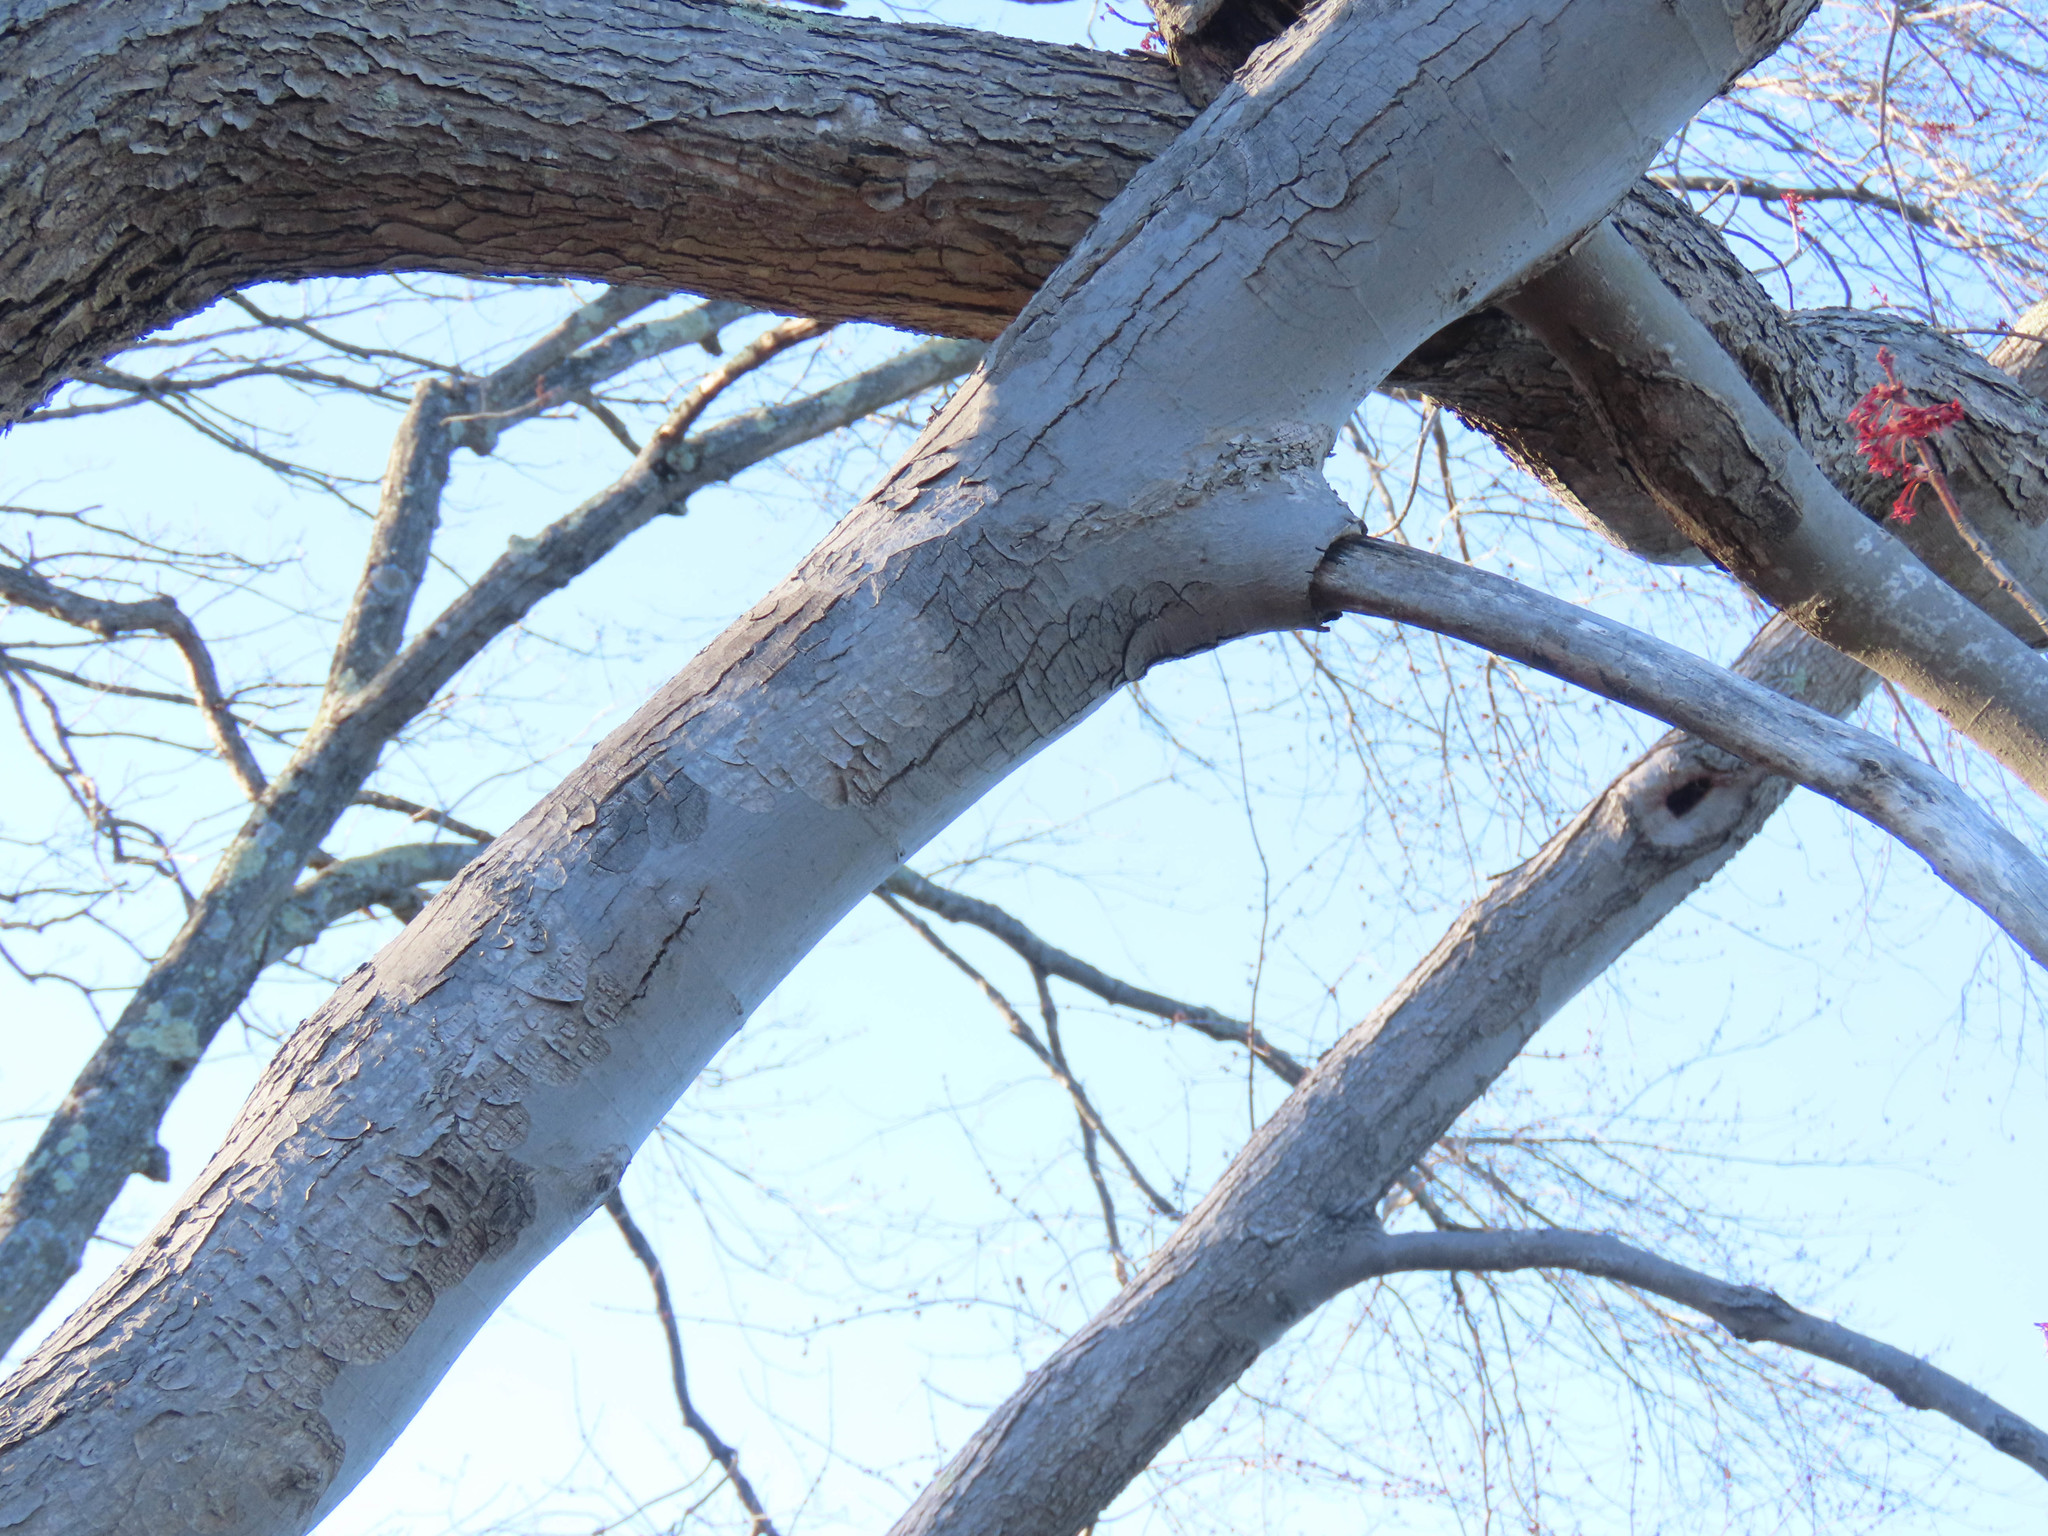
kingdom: Plantae
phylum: Tracheophyta
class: Magnoliopsida
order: Sapindales
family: Sapindaceae
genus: Acer
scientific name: Acer rubrum
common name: Red maple
